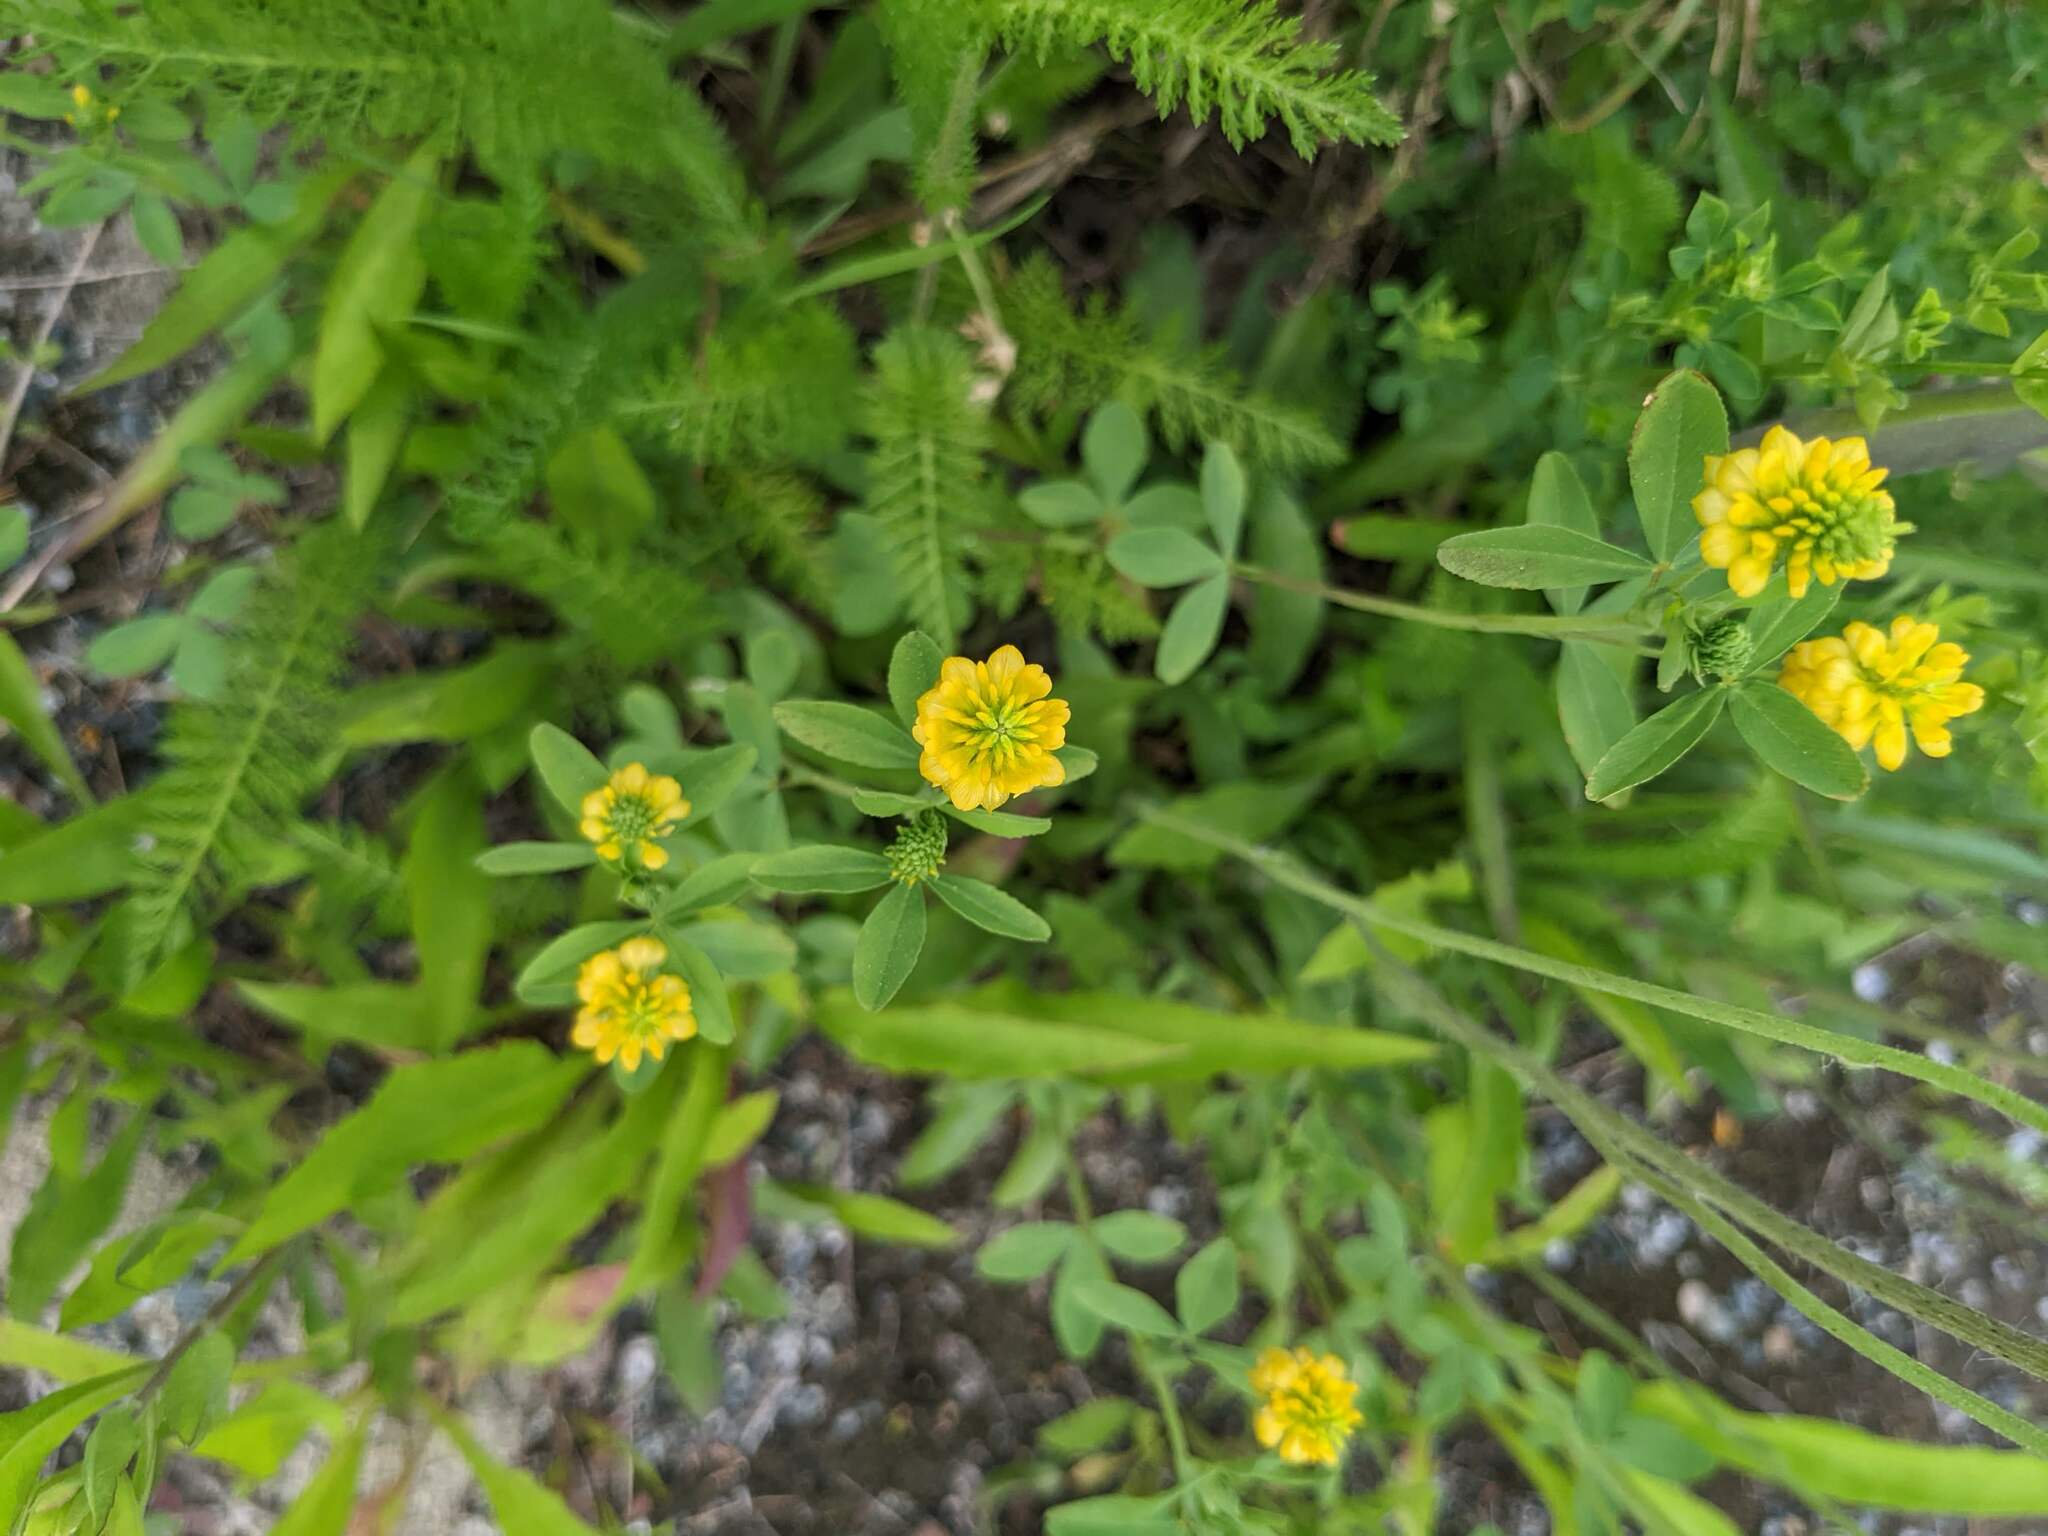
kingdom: Plantae
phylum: Tracheophyta
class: Magnoliopsida
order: Fabales
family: Fabaceae
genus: Trifolium
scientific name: Trifolium aureum
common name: Golden clover
